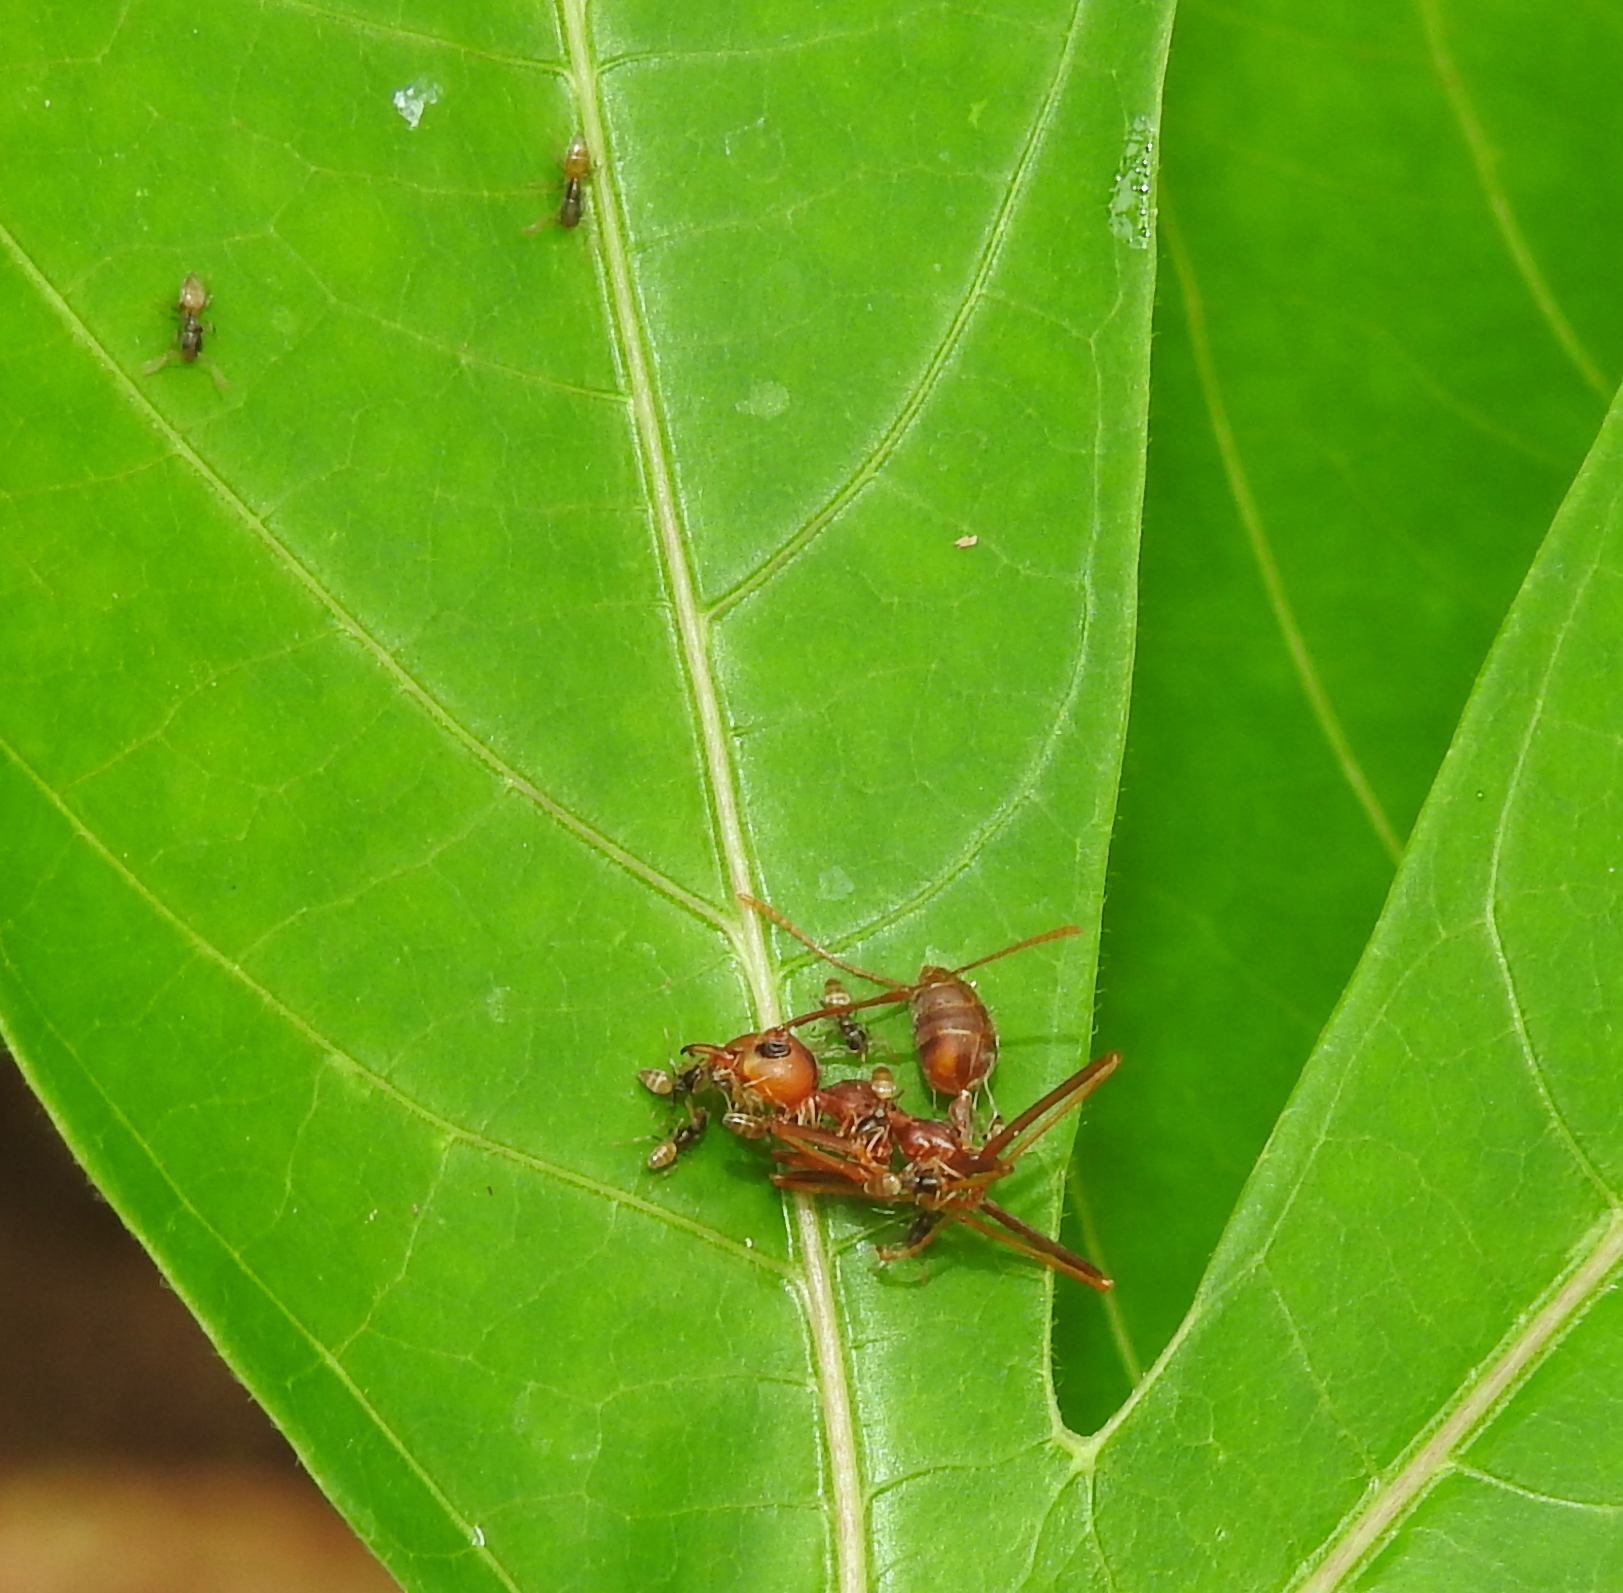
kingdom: Animalia
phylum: Arthropoda
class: Insecta
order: Hymenoptera
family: Formicidae
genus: Tapinoma
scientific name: Tapinoma melanocephalum
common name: Ghost ant
